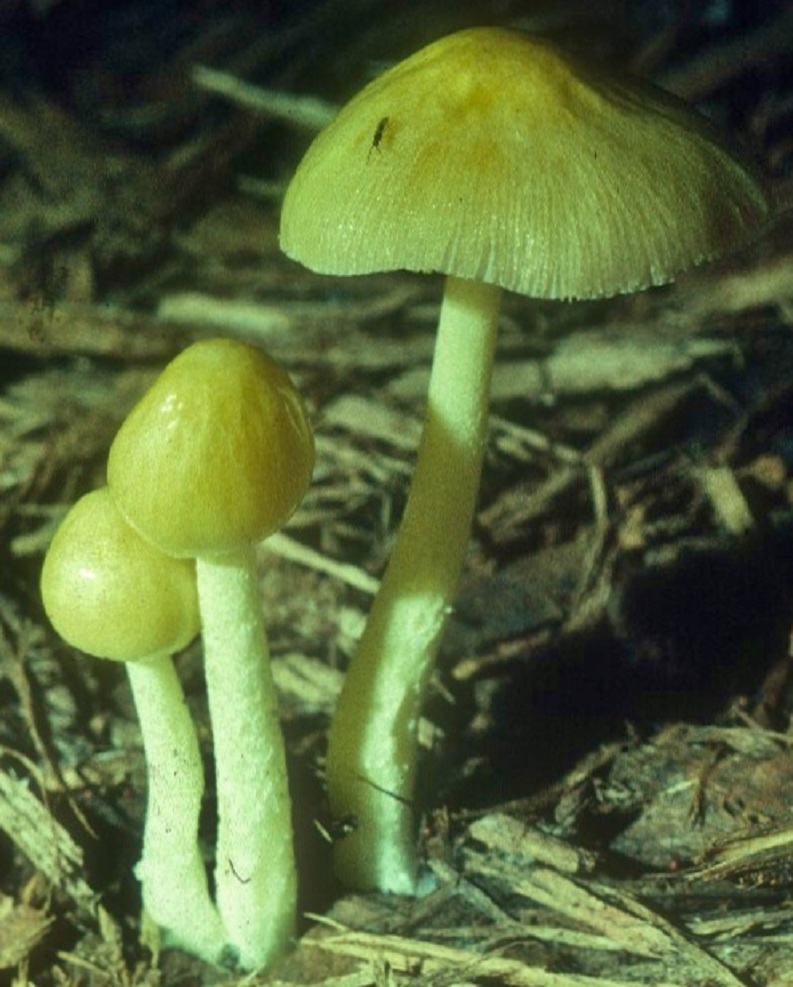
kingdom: Fungi
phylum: Basidiomycota
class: Agaricomycetes
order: Agaricales
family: Bolbitiaceae
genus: Bolbitius
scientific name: Bolbitius titubans
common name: Yellow fieldcap
